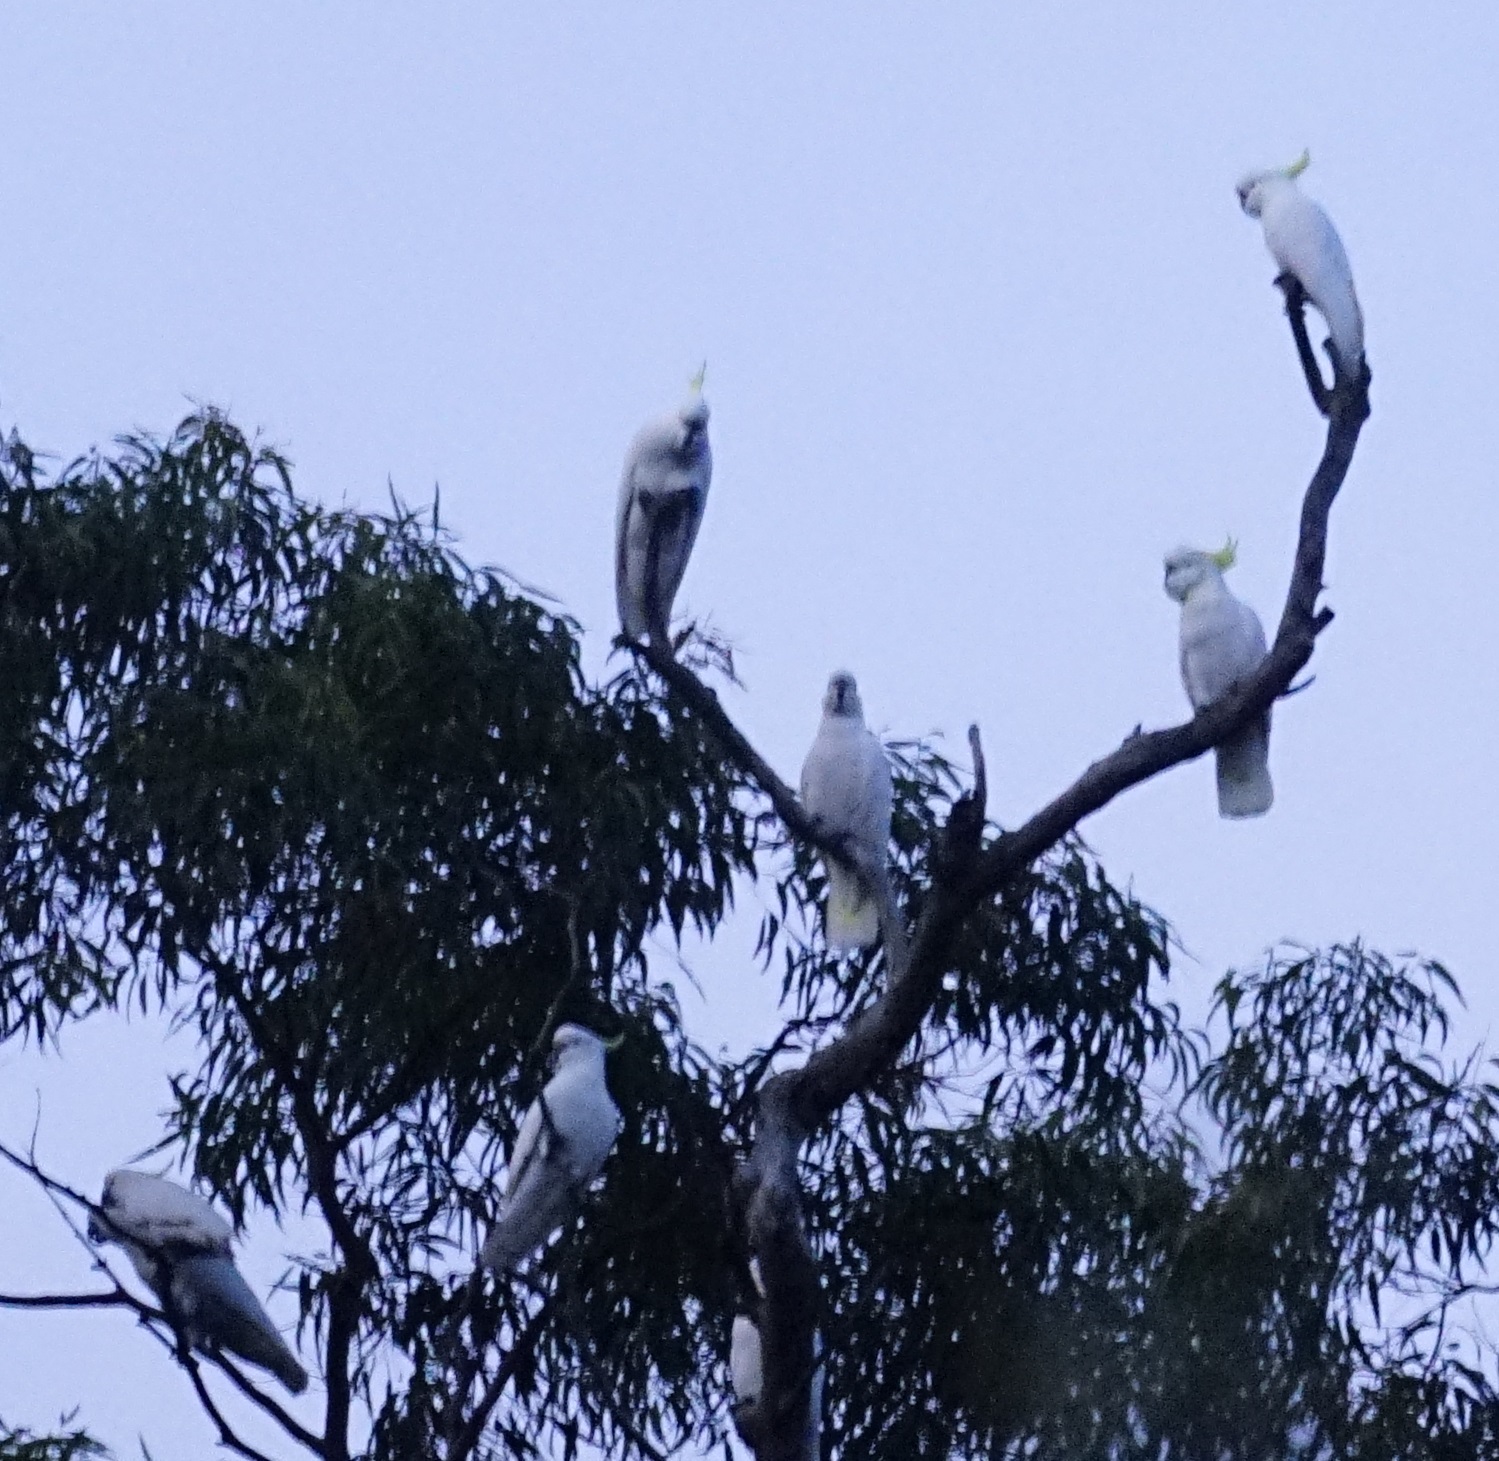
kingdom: Animalia
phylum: Chordata
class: Aves
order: Psittaciformes
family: Psittacidae
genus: Cacatua
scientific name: Cacatua galerita
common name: Sulphur-crested cockatoo
